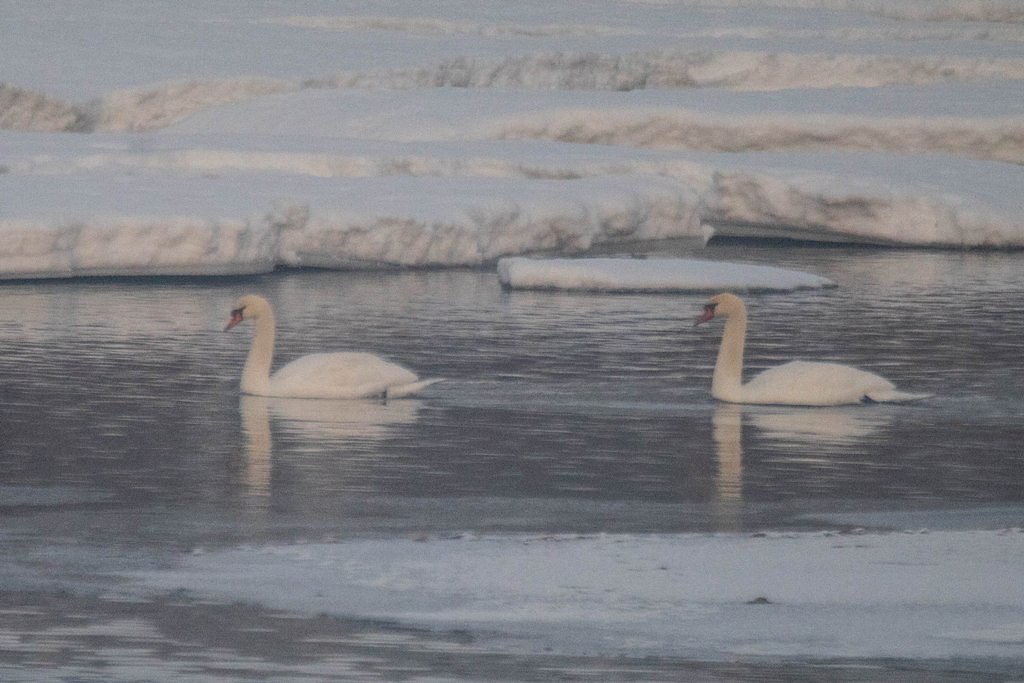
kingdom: Animalia
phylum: Chordata
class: Aves
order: Anseriformes
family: Anatidae
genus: Cygnus
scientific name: Cygnus olor
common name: Mute swan
